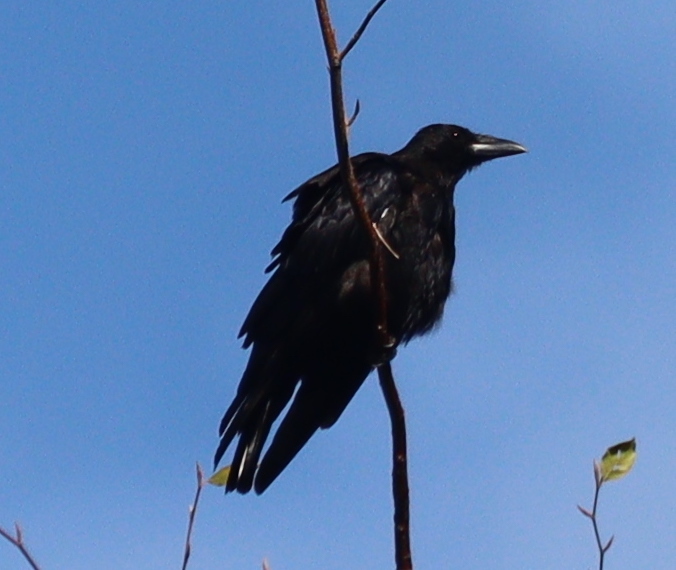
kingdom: Animalia
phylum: Chordata
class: Aves
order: Passeriformes
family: Corvidae
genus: Corvus
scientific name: Corvus corone
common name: Carrion crow
